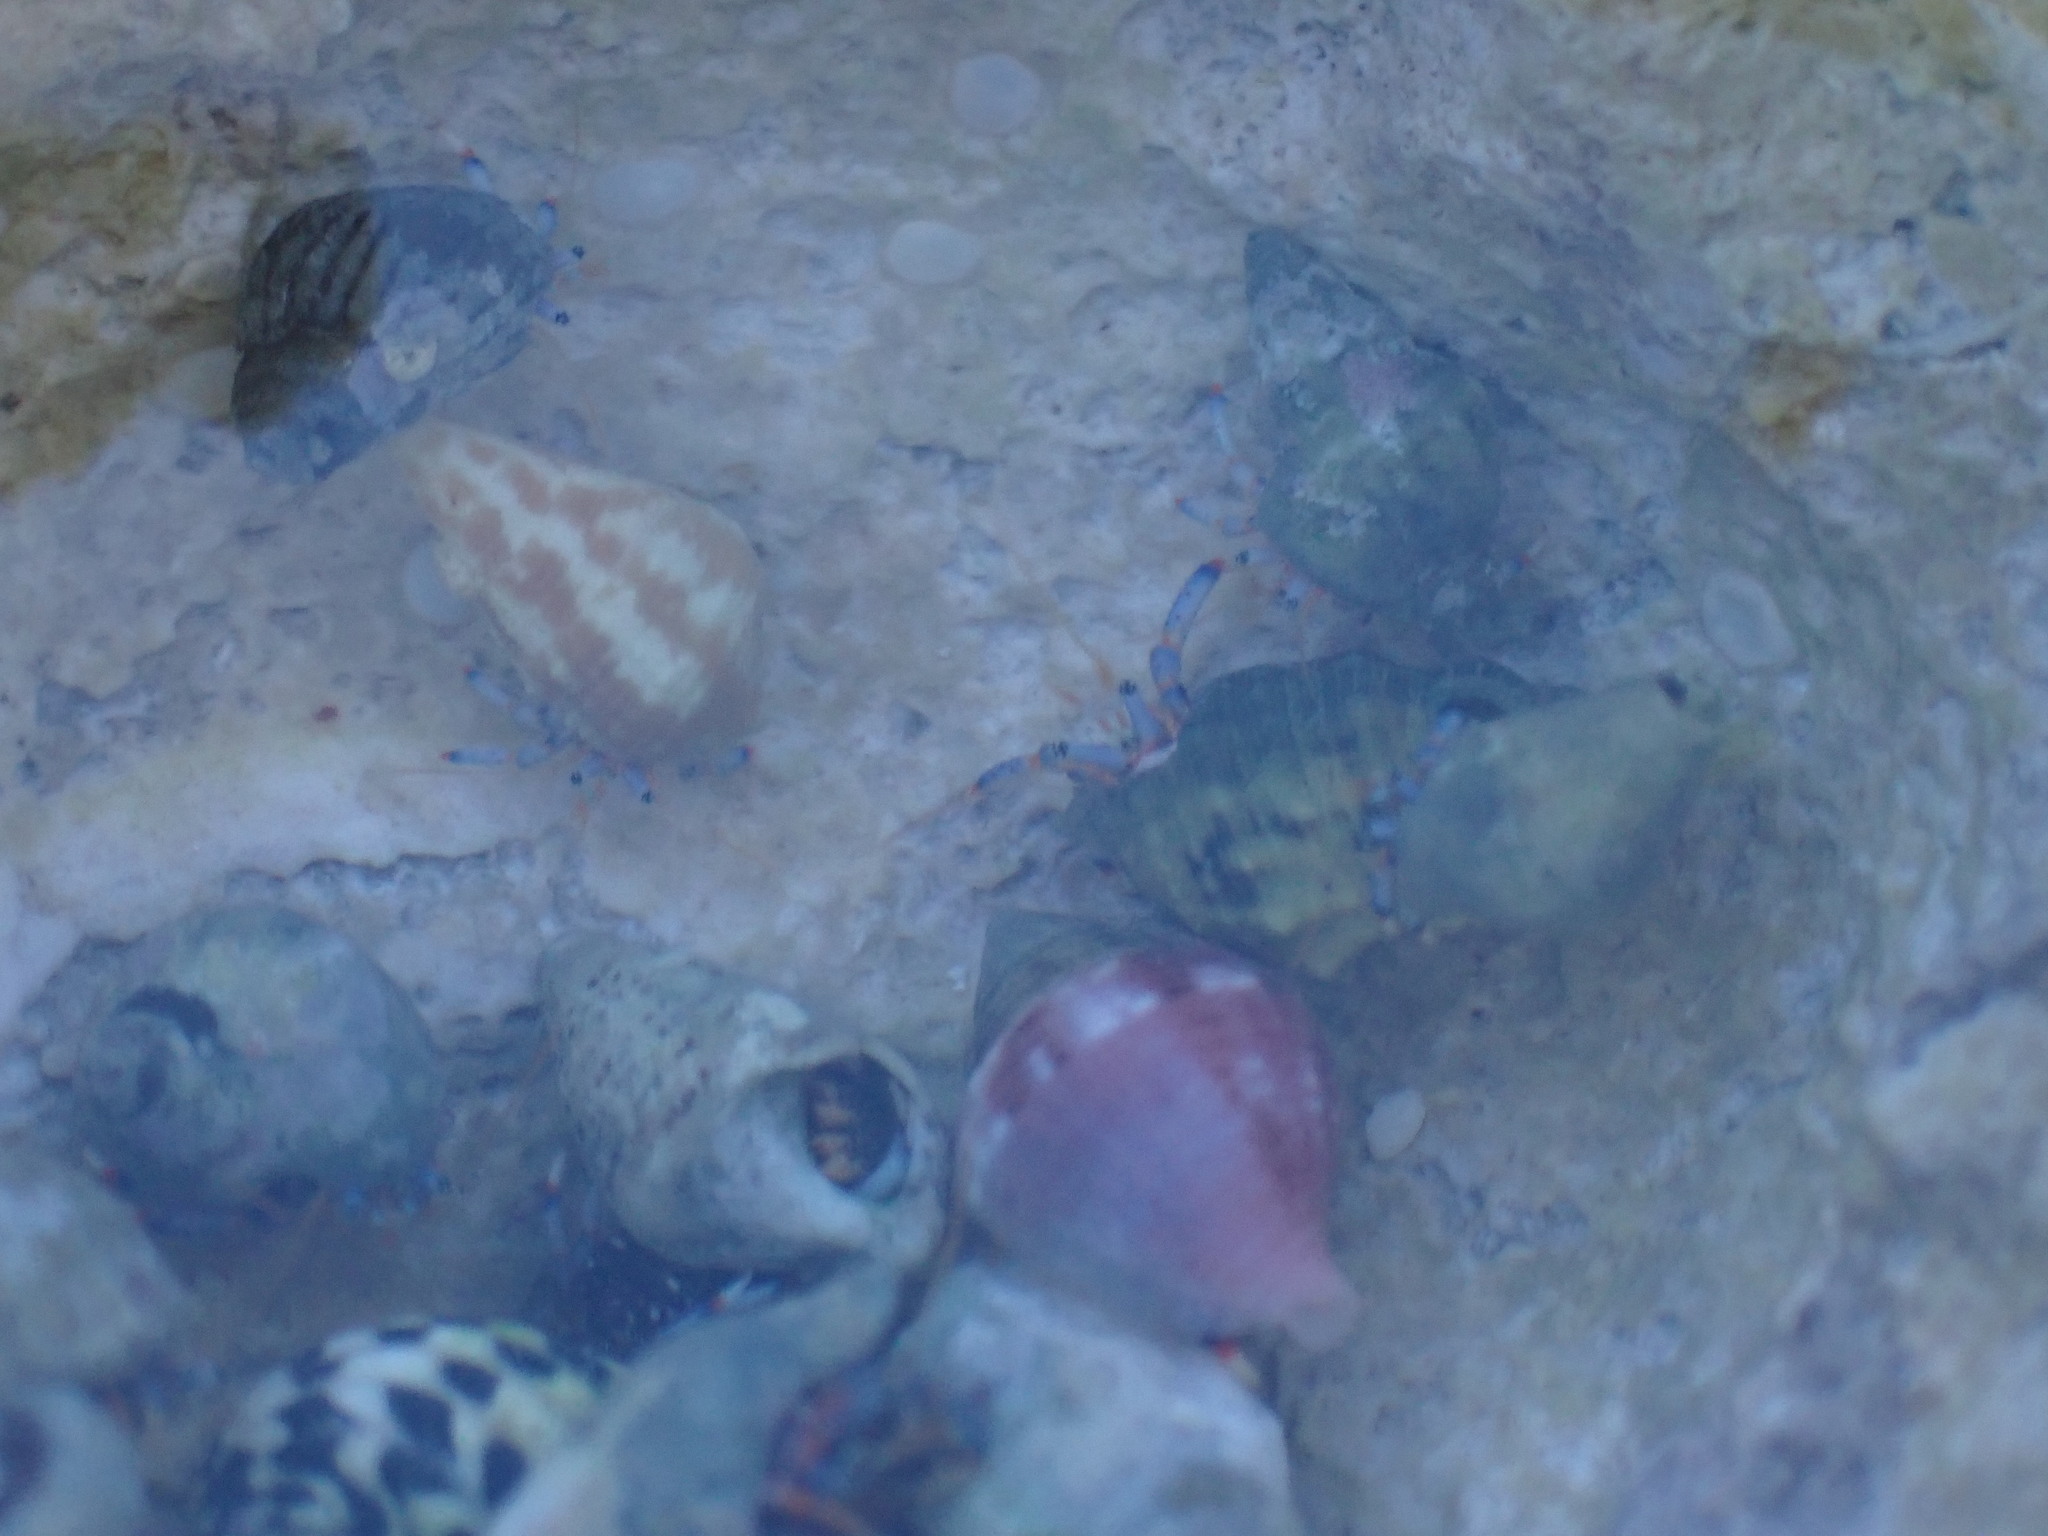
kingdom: Animalia
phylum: Mollusca
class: Gastropoda
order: Neogastropoda
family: Columbellidae
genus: Columbella
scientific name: Columbella mercatoria
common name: West indian dovesnail
